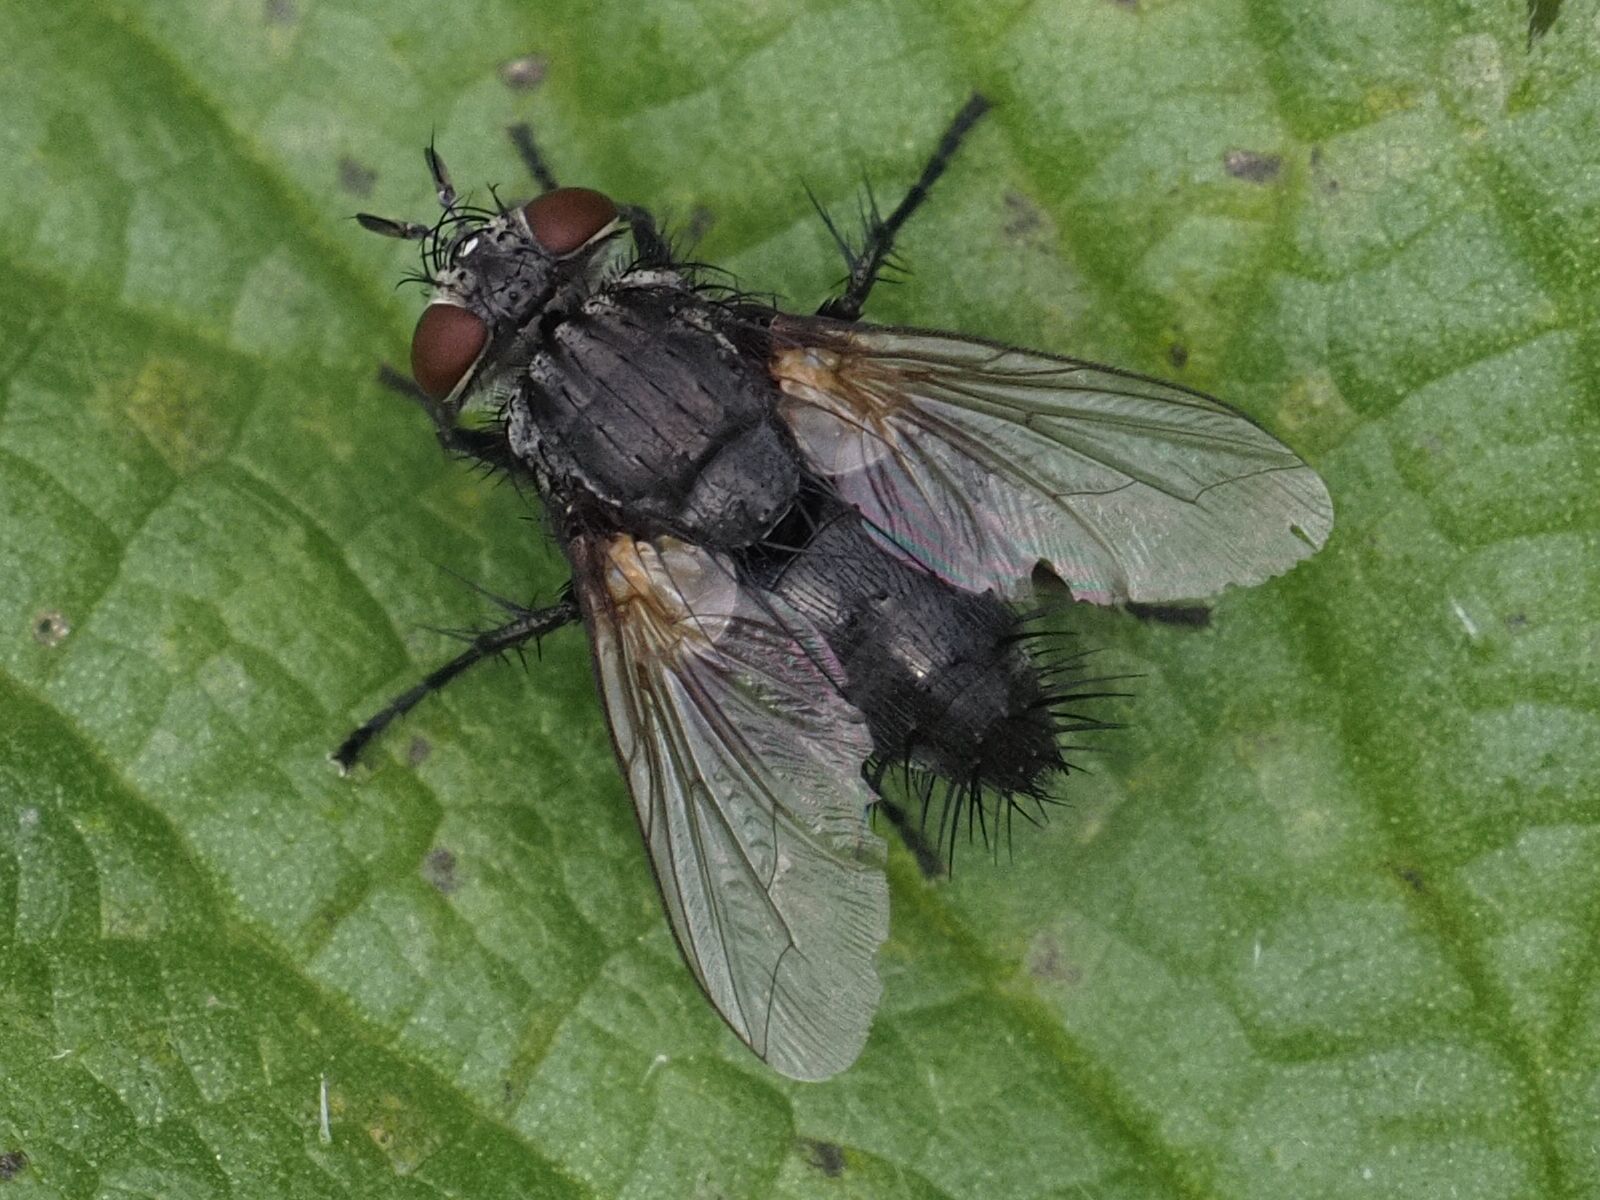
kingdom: Animalia
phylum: Arthropoda
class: Insecta
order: Diptera
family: Tachinidae
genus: Voria
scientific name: Voria ruralis
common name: Parasitic fly
